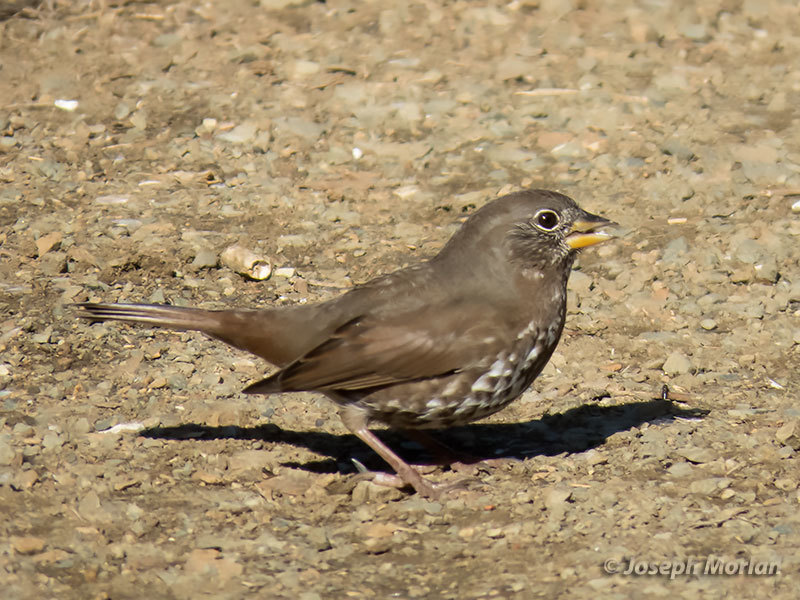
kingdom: Animalia
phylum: Chordata
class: Aves
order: Passeriformes
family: Passerellidae
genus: Passerella
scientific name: Passerella iliaca
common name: Fox sparrow
